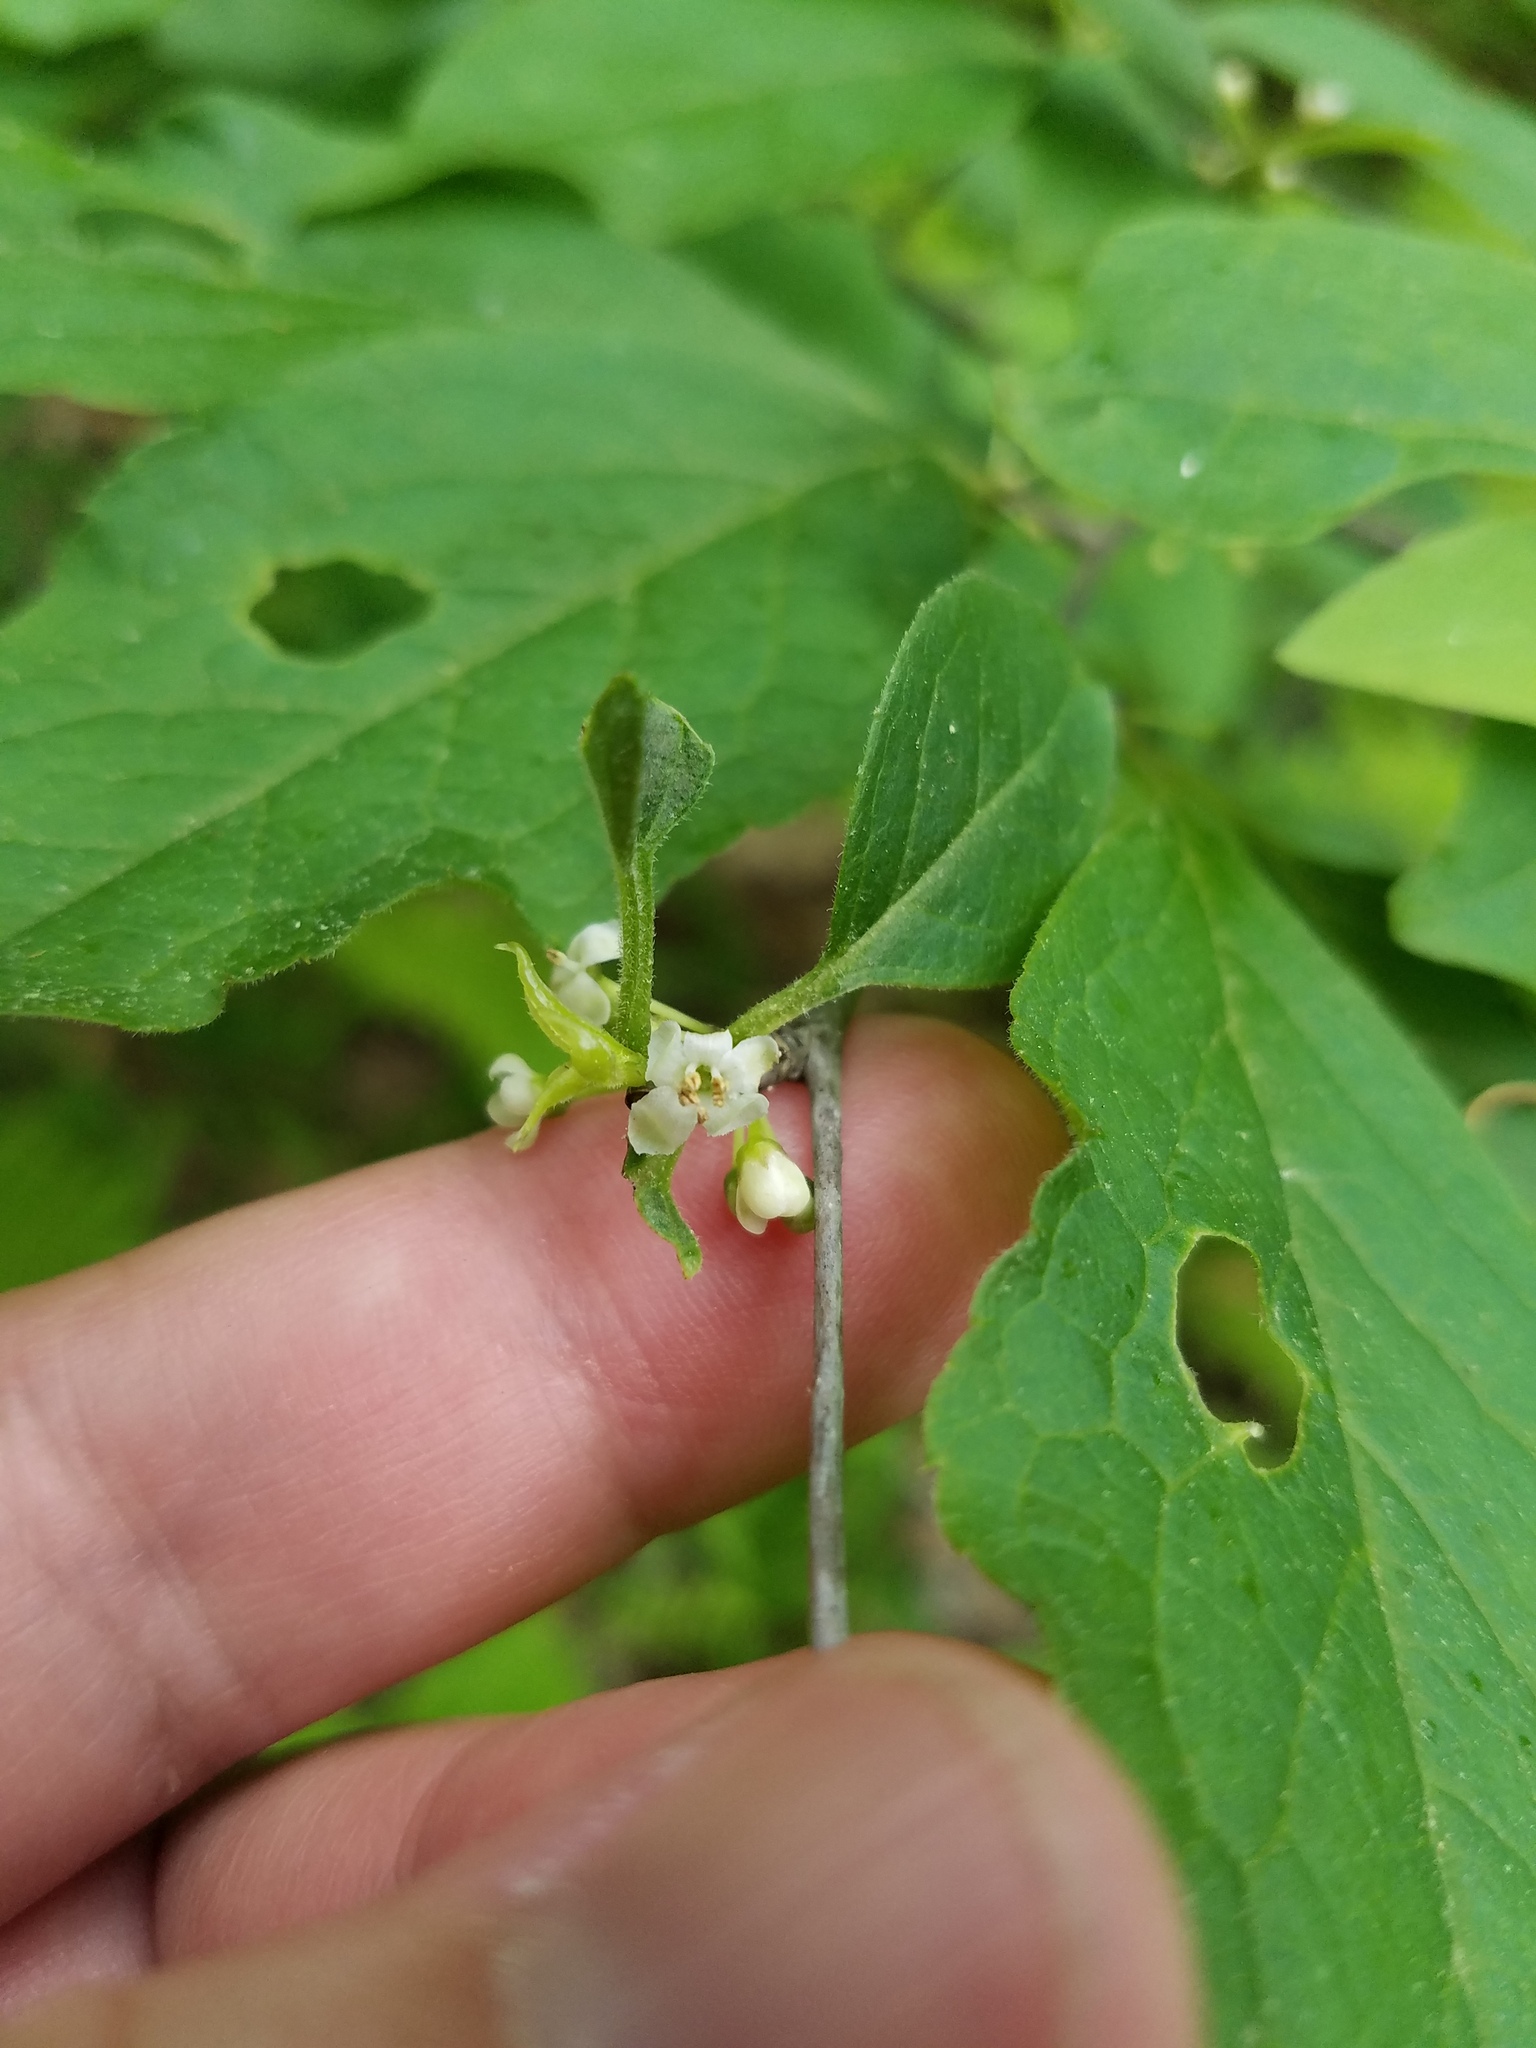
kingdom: Plantae
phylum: Tracheophyta
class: Magnoliopsida
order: Aquifoliales
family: Aquifoliaceae
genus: Ilex
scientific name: Ilex montana
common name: Mountain winterberry
